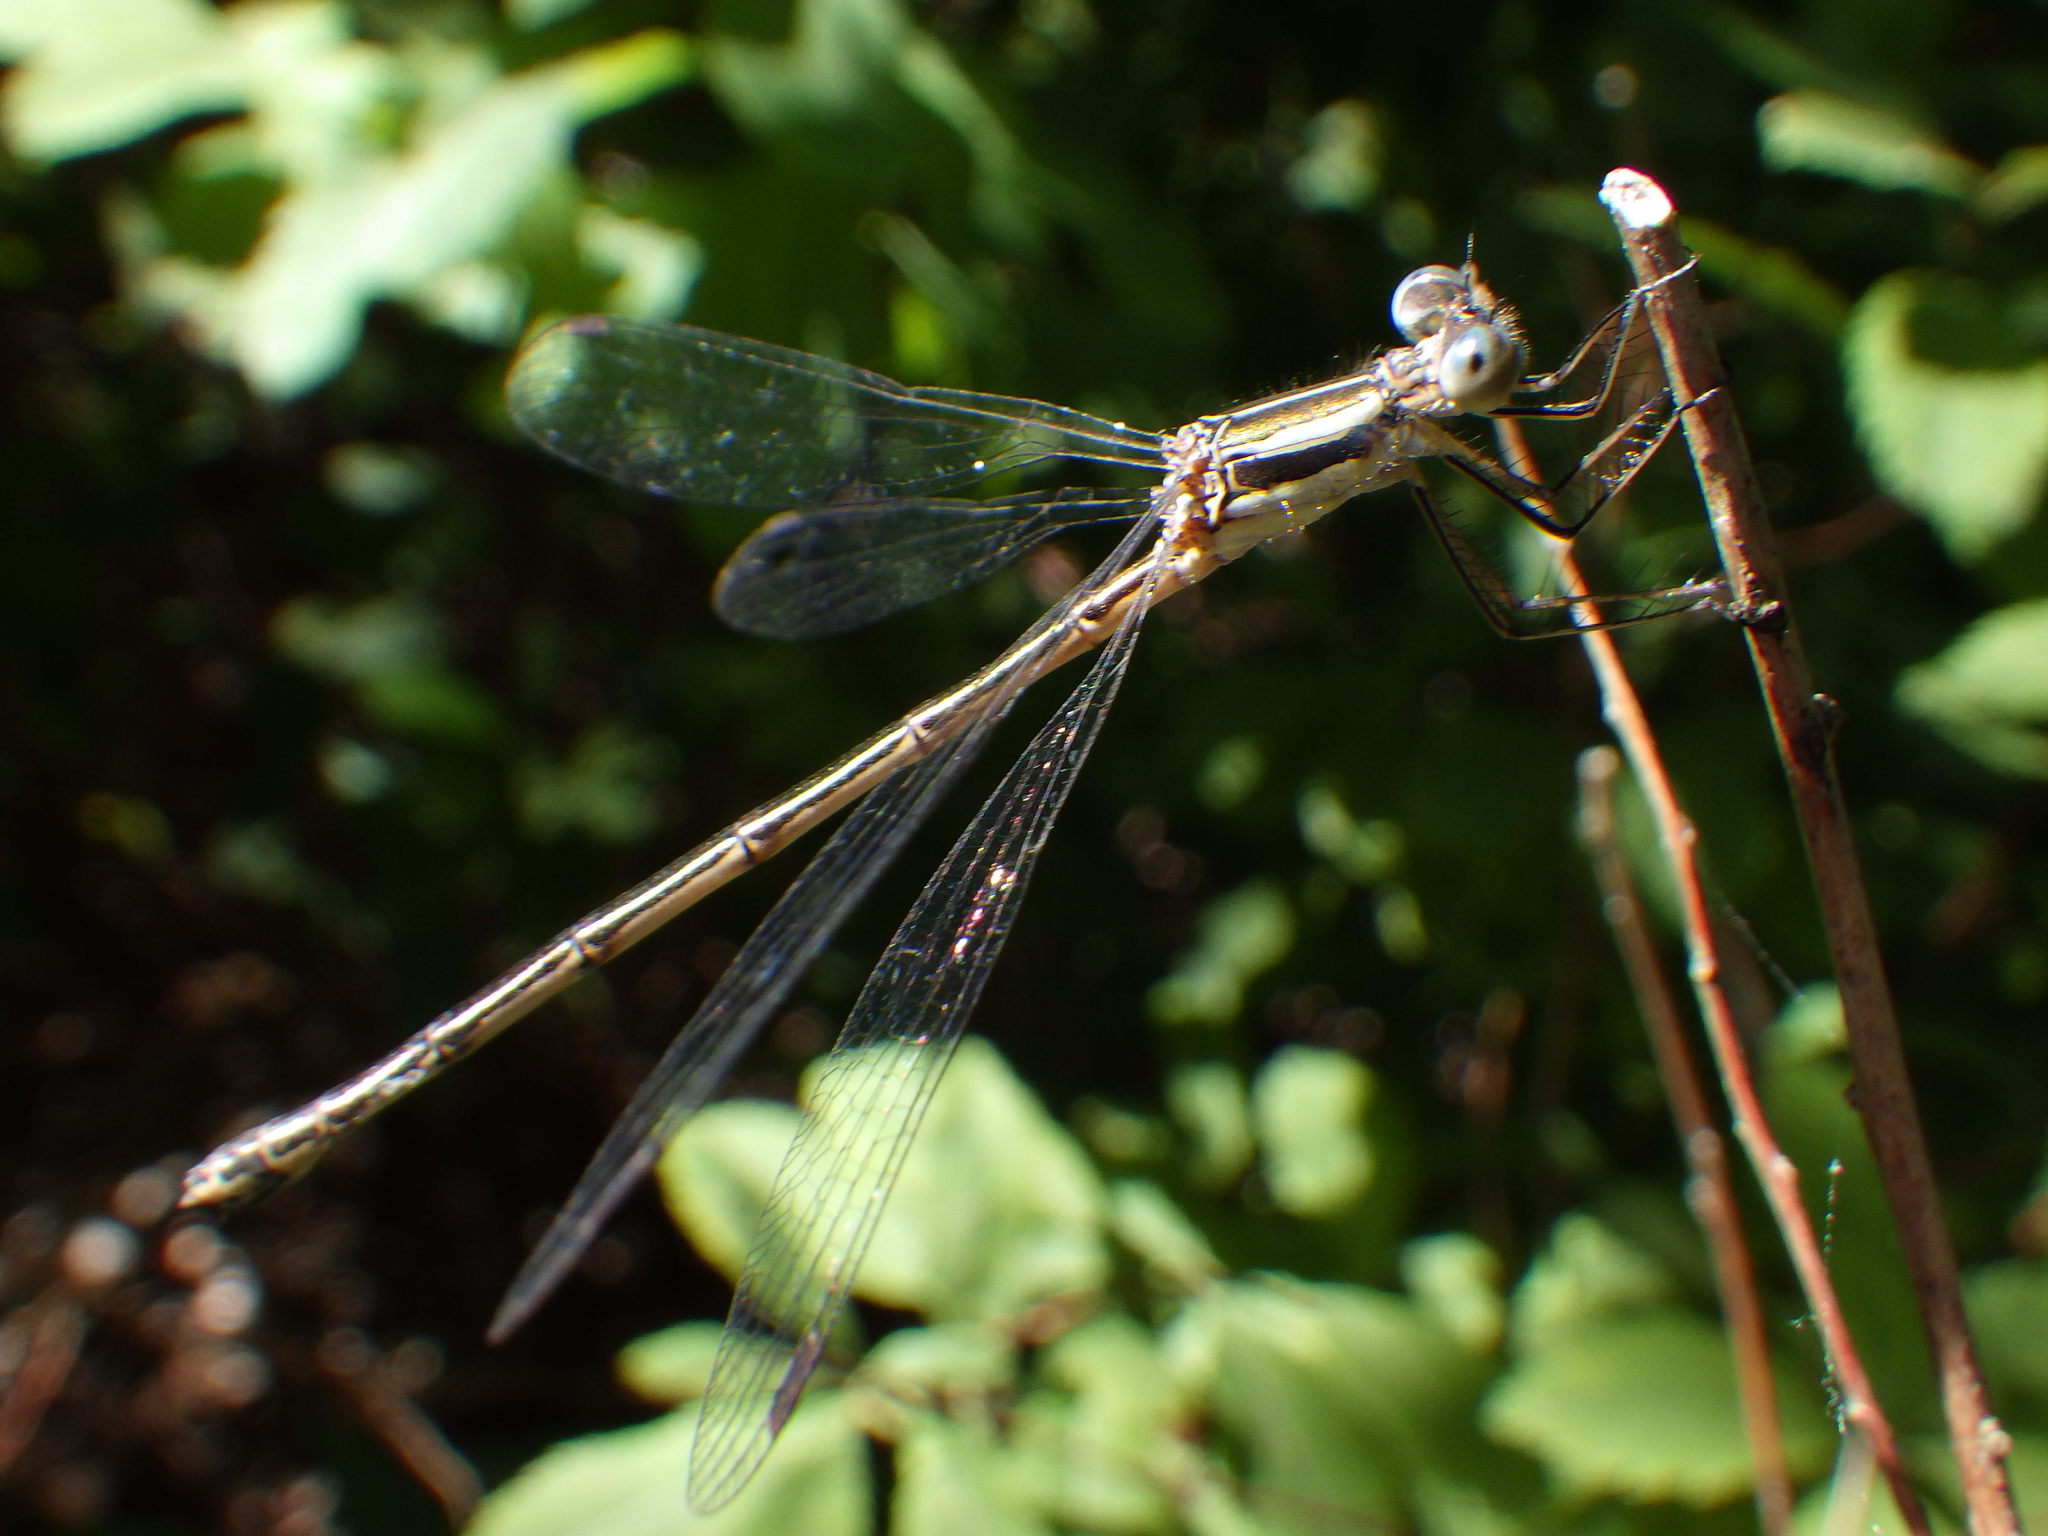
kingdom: Animalia
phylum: Arthropoda
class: Insecta
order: Odonata
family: Lestidae
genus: Lestes
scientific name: Lestes disjunctus
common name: Northern spreadwing
